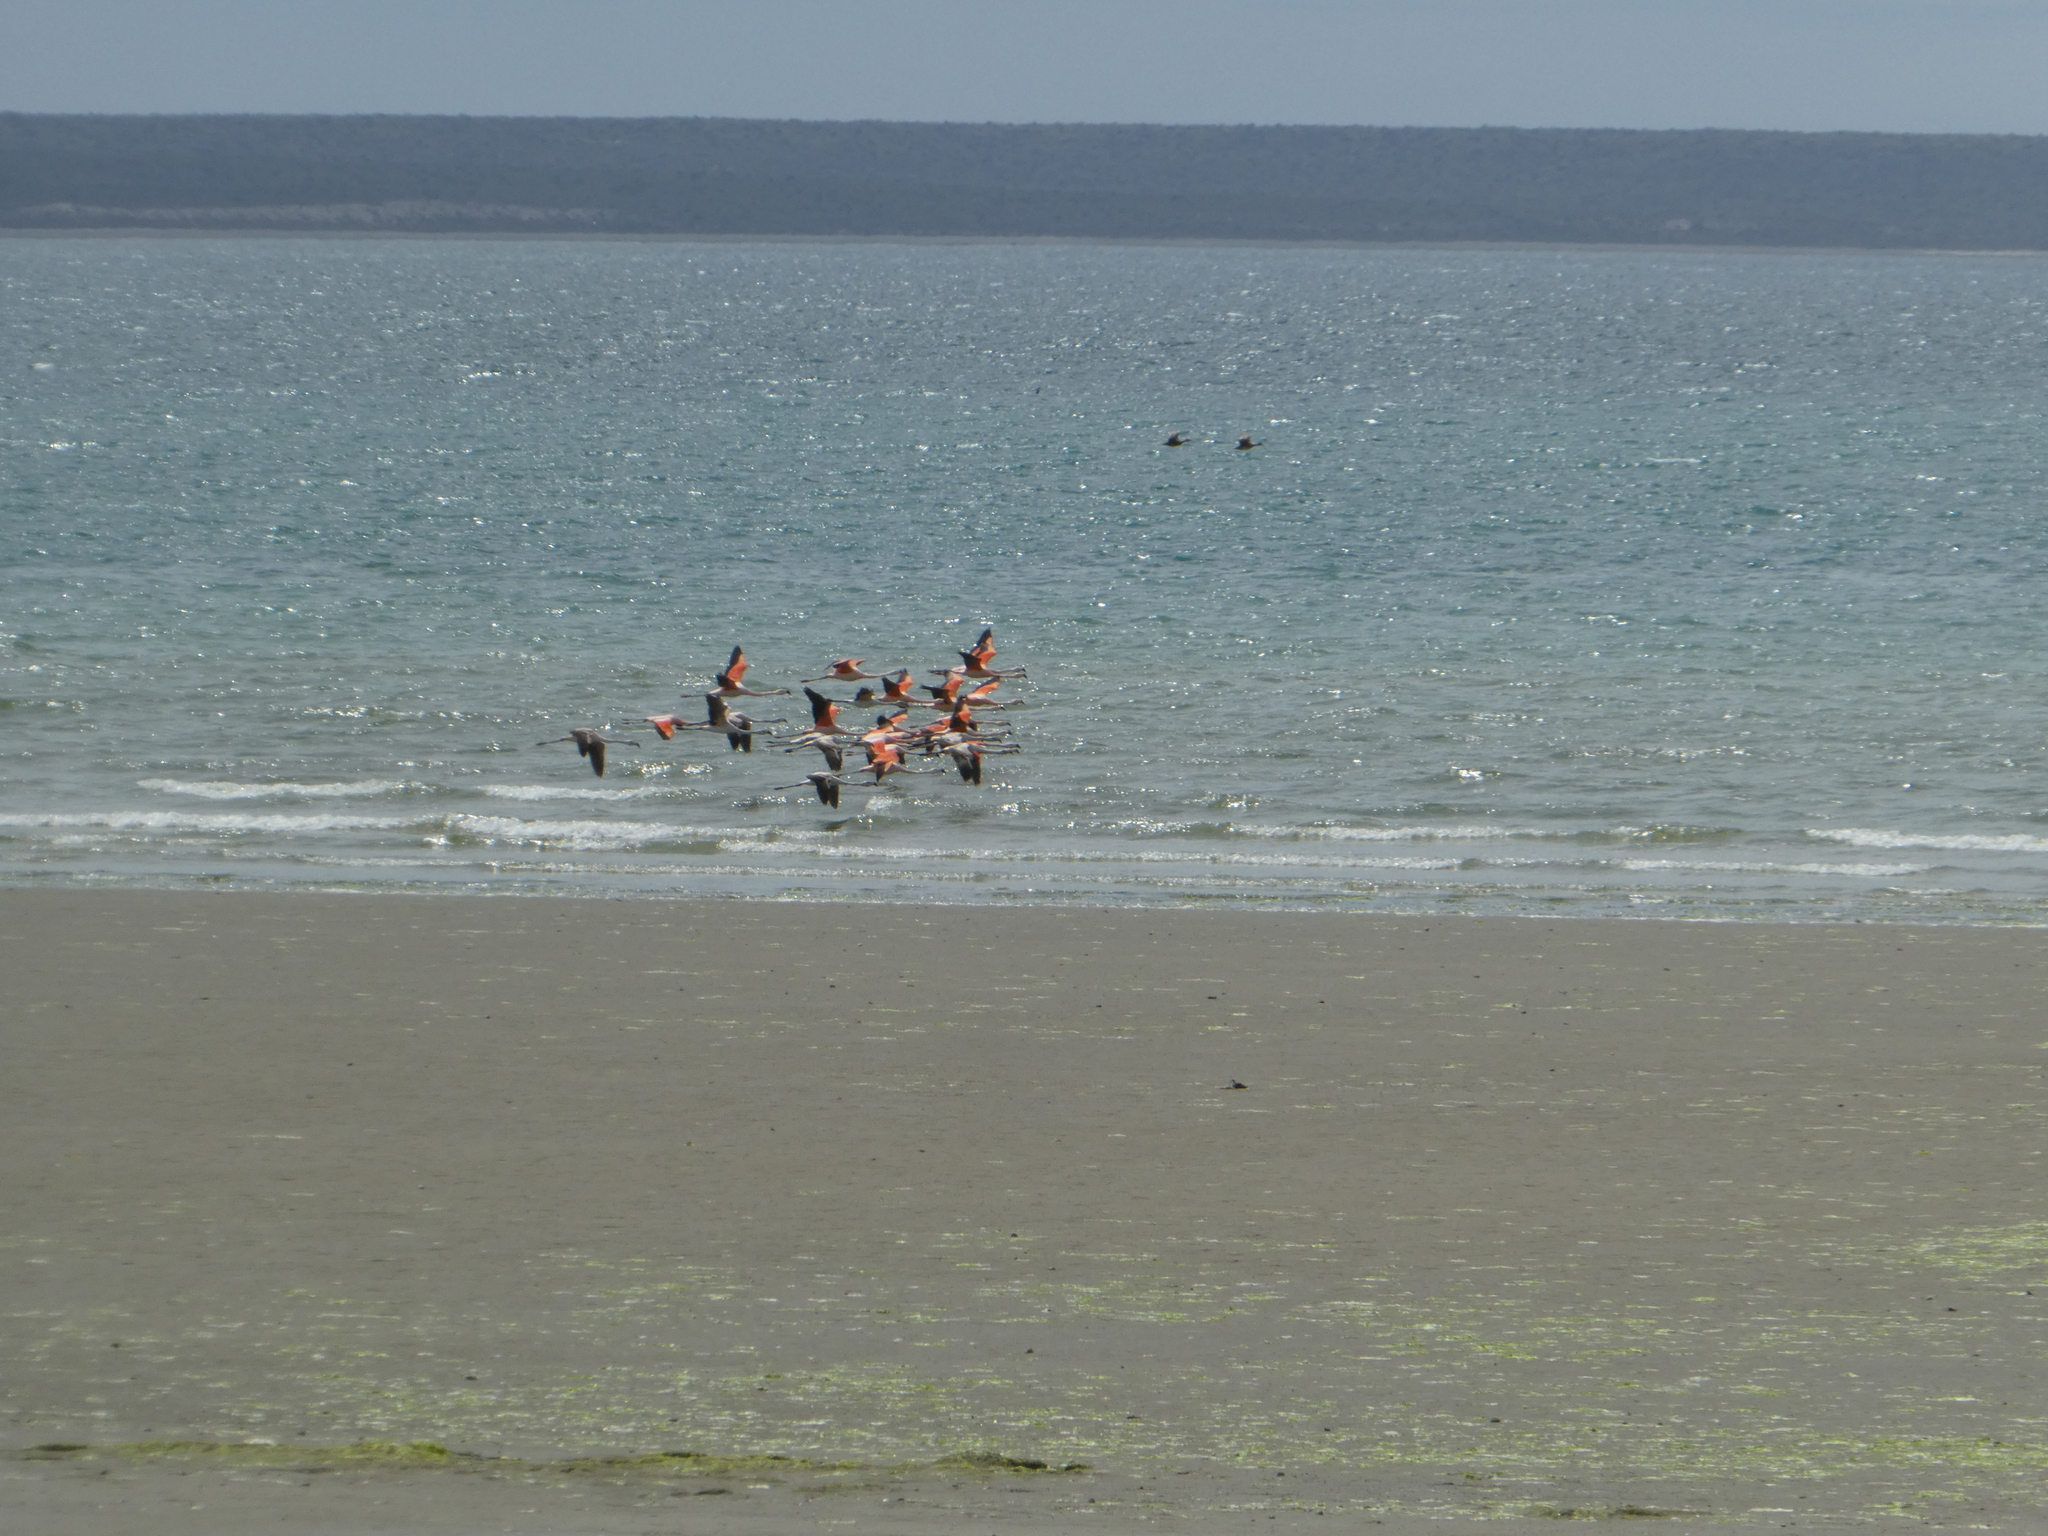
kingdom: Animalia
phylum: Chordata
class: Aves
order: Phoenicopteriformes
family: Phoenicopteridae
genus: Phoenicopterus
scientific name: Phoenicopterus chilensis
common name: Chilean flamingo
